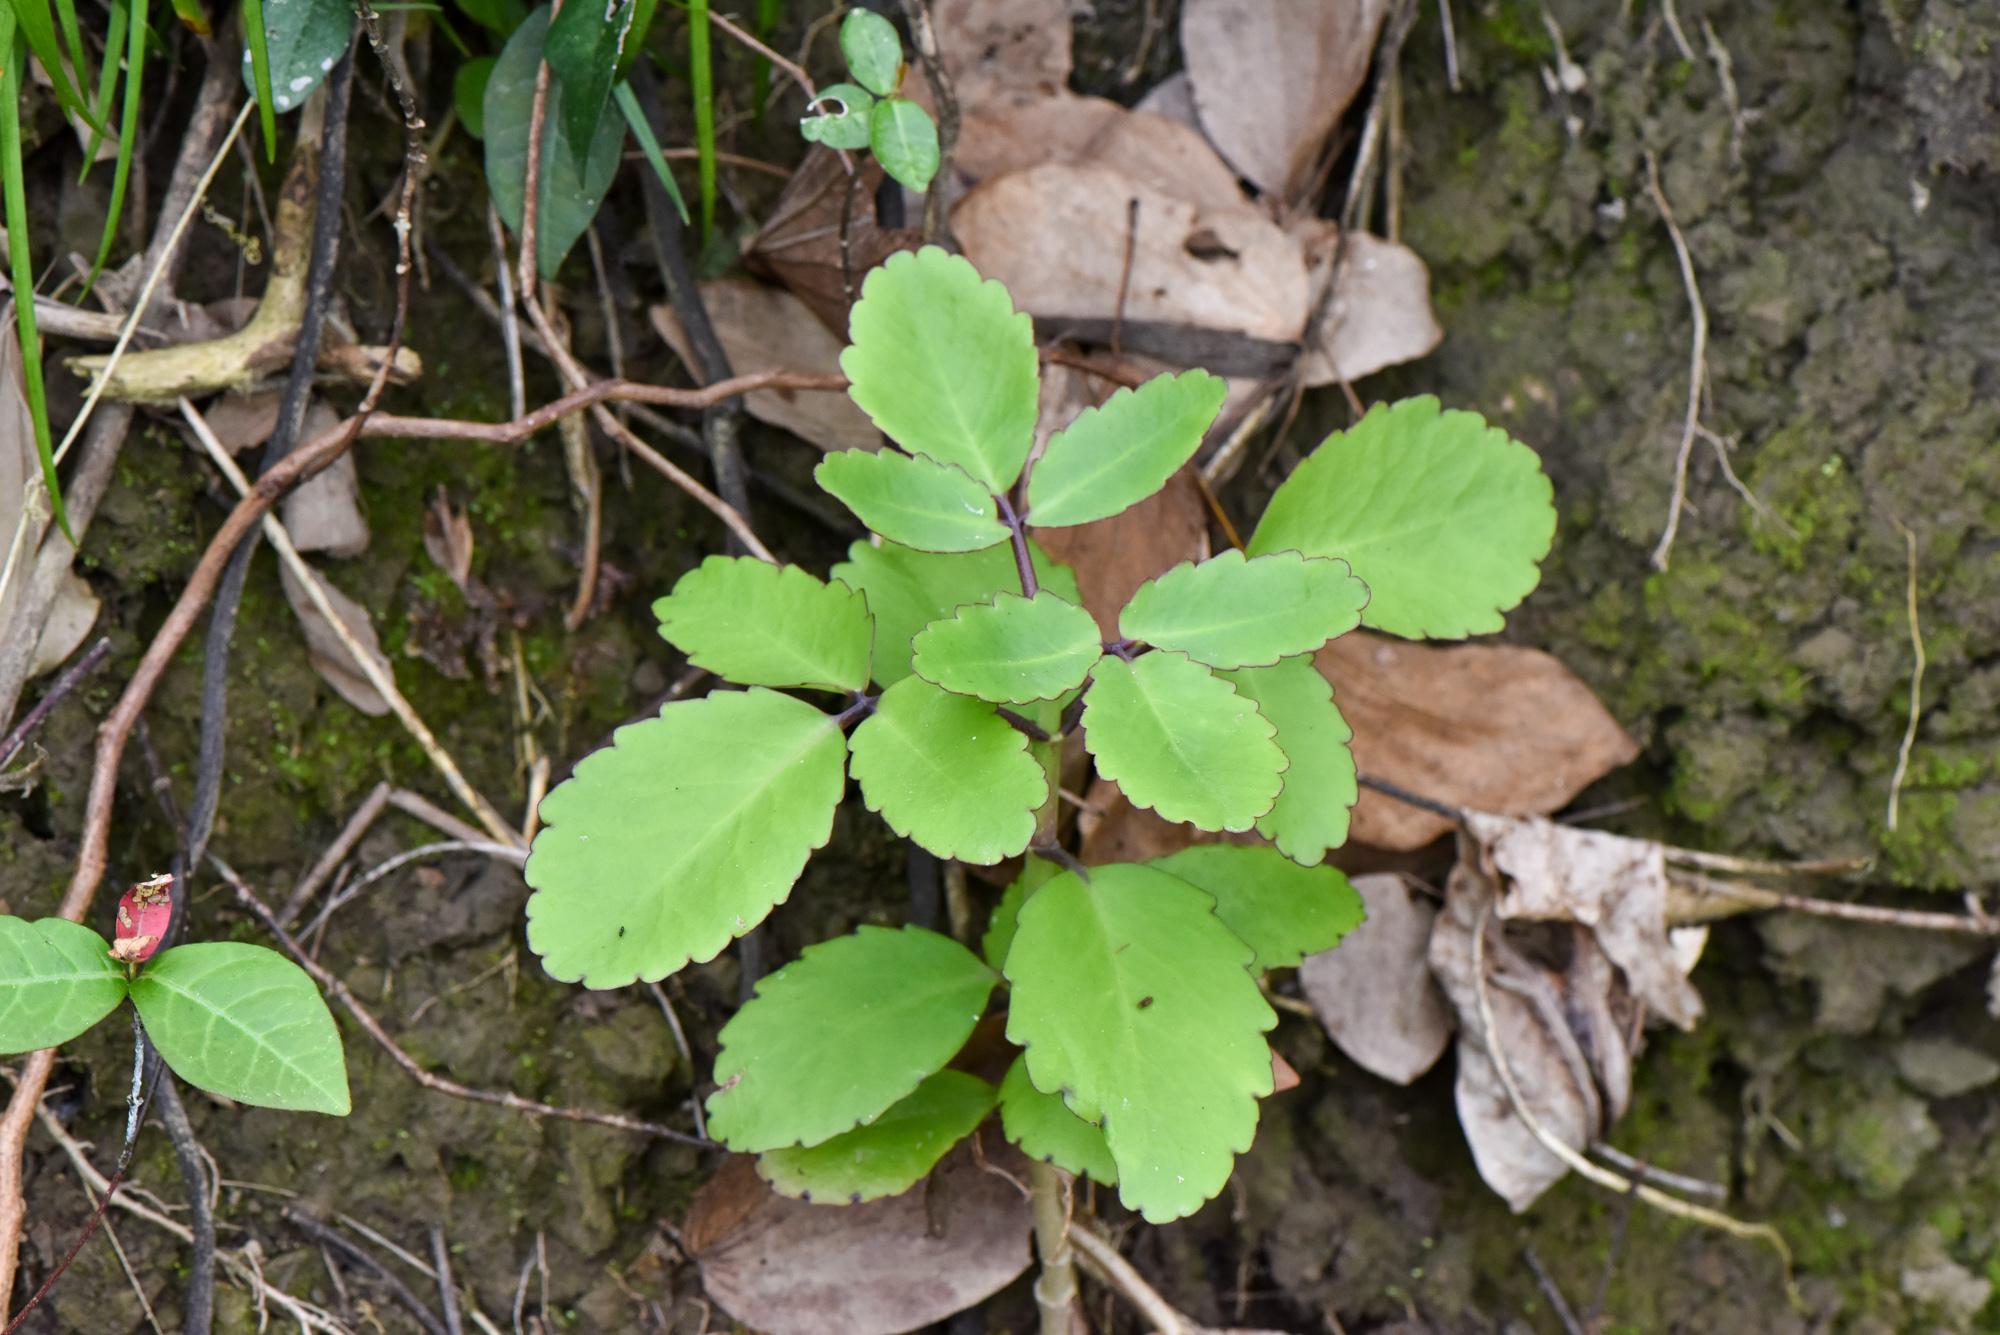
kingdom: Plantae
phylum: Tracheophyta
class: Magnoliopsida
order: Saxifragales
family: Crassulaceae
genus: Kalanchoe
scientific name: Kalanchoe pinnata
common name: Cathedral bells
